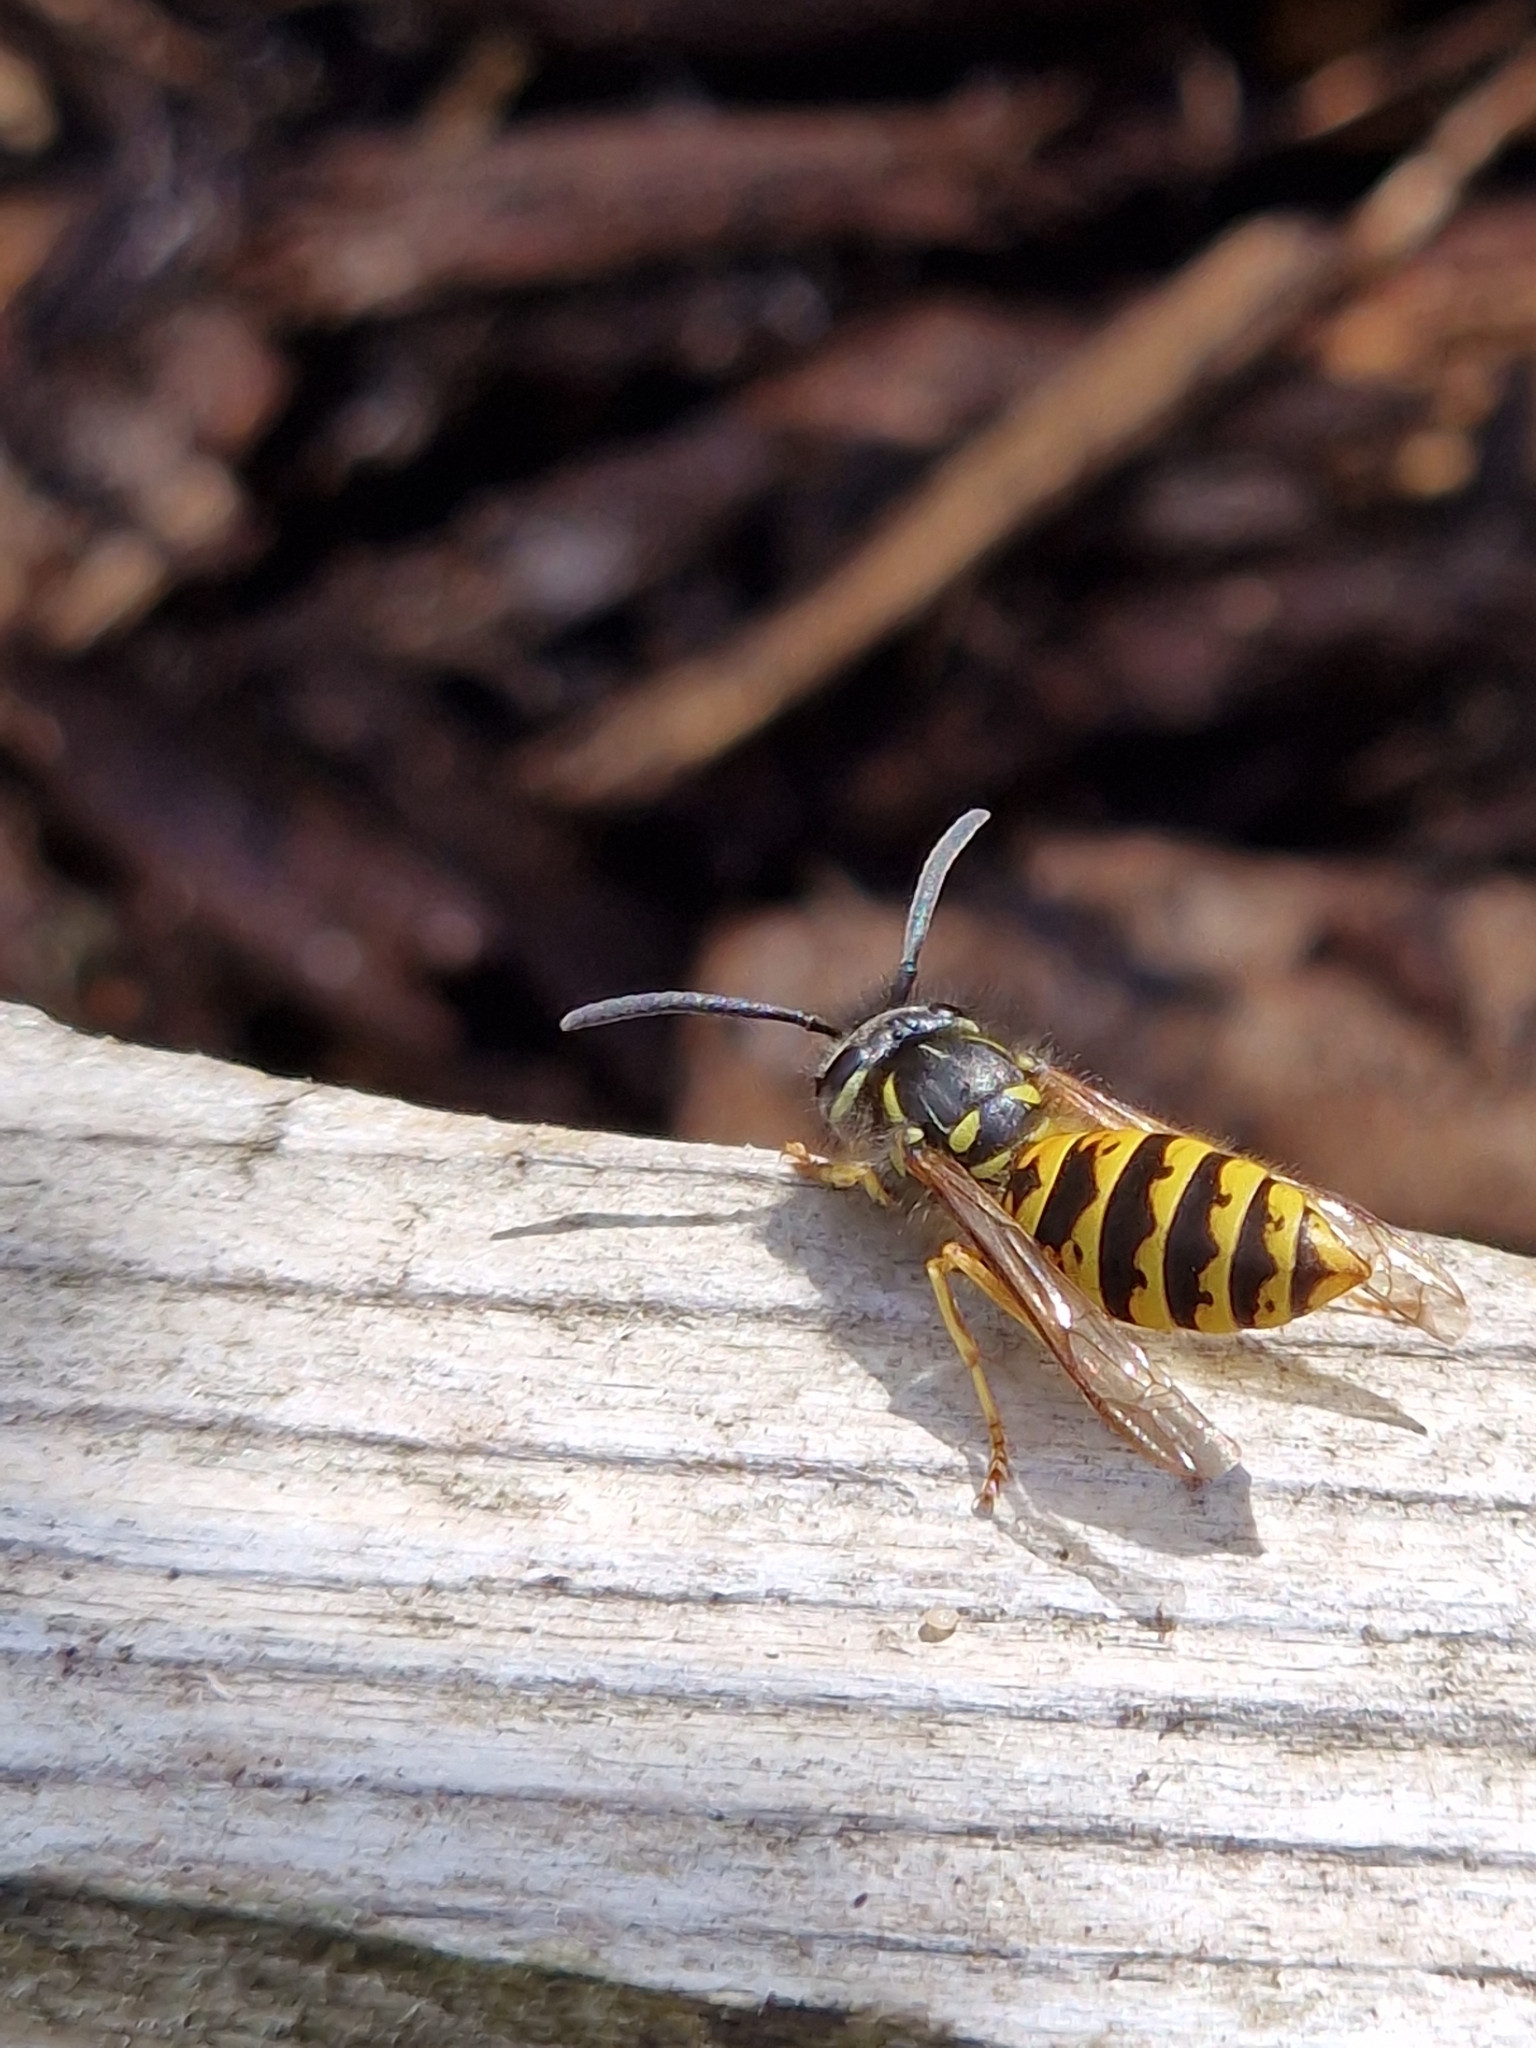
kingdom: Animalia
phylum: Arthropoda
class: Insecta
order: Hymenoptera
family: Vespidae
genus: Vespula
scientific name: Vespula vulgaris
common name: Common wasp
